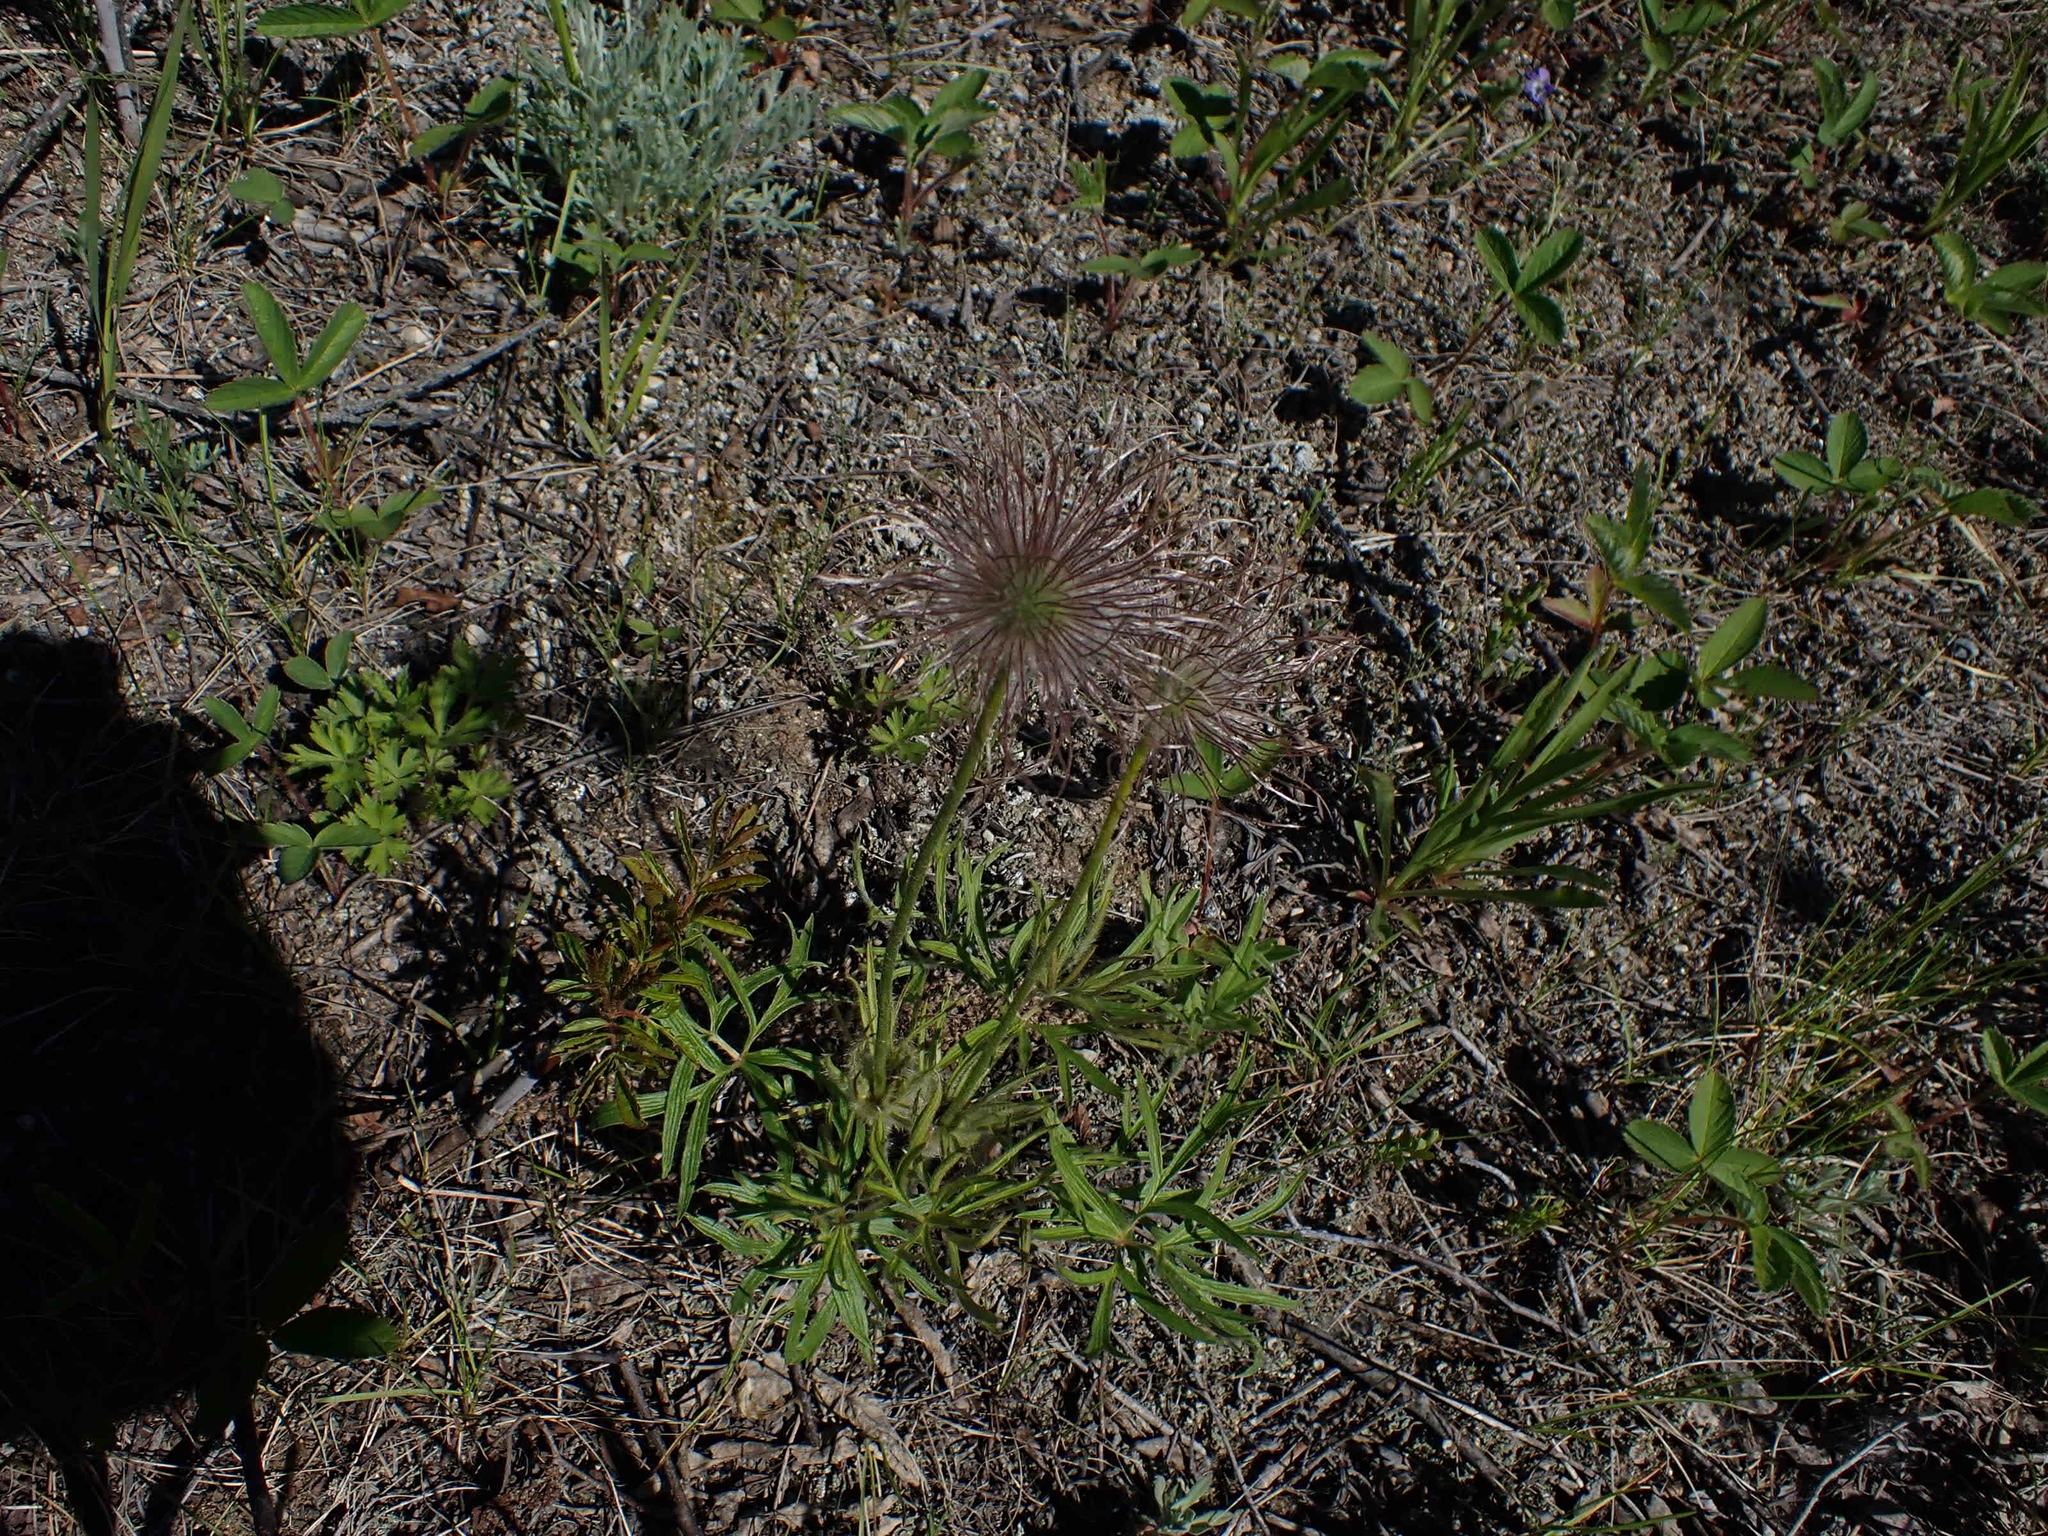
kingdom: Plantae
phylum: Tracheophyta
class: Magnoliopsida
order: Ranunculales
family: Ranunculaceae
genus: Pulsatilla
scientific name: Pulsatilla nuttalliana
